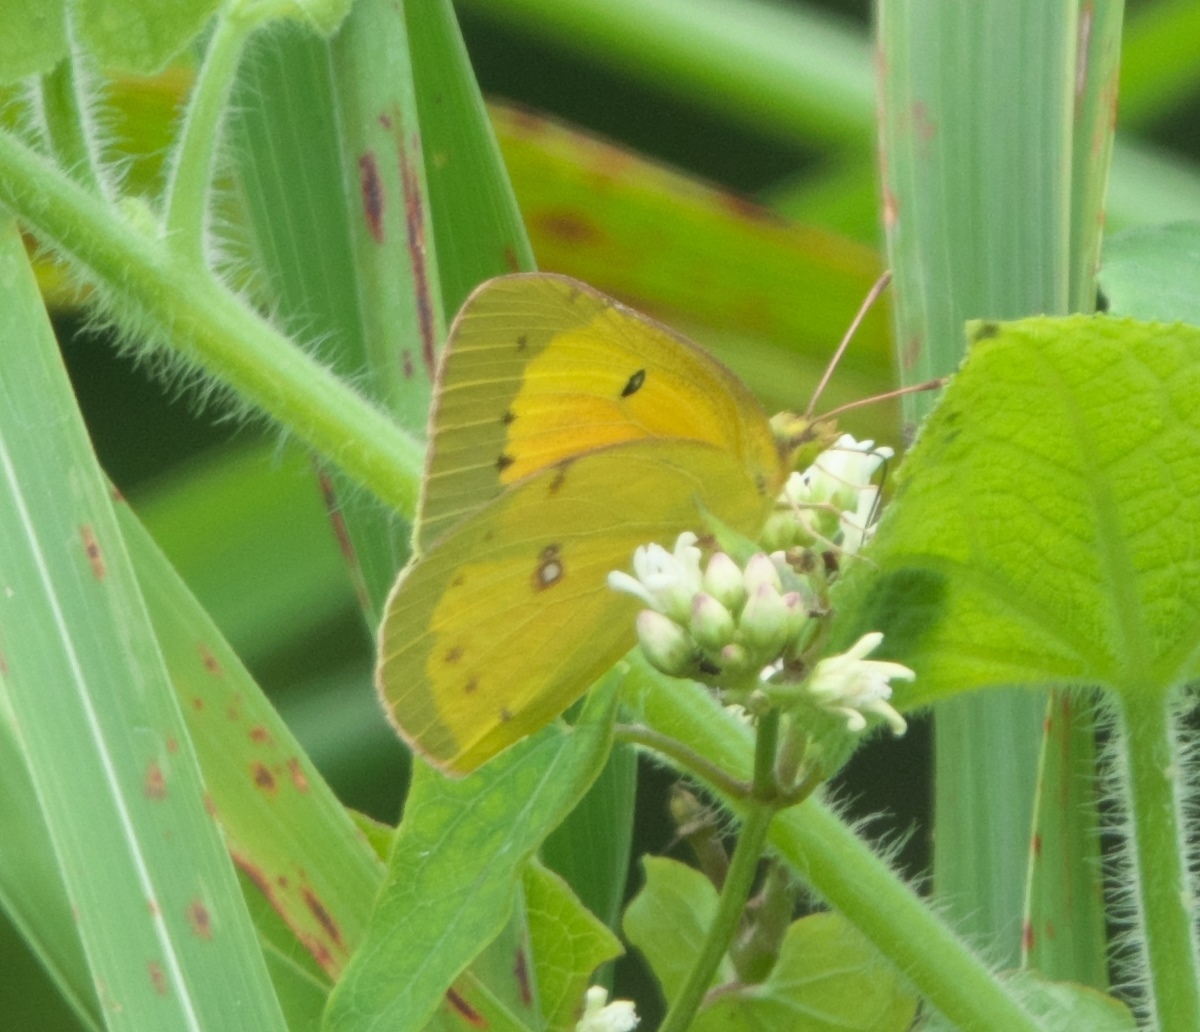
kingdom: Animalia
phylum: Arthropoda
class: Insecta
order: Lepidoptera
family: Pieridae
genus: Colias
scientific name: Colias eurytheme
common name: Alfalfa butterfly
